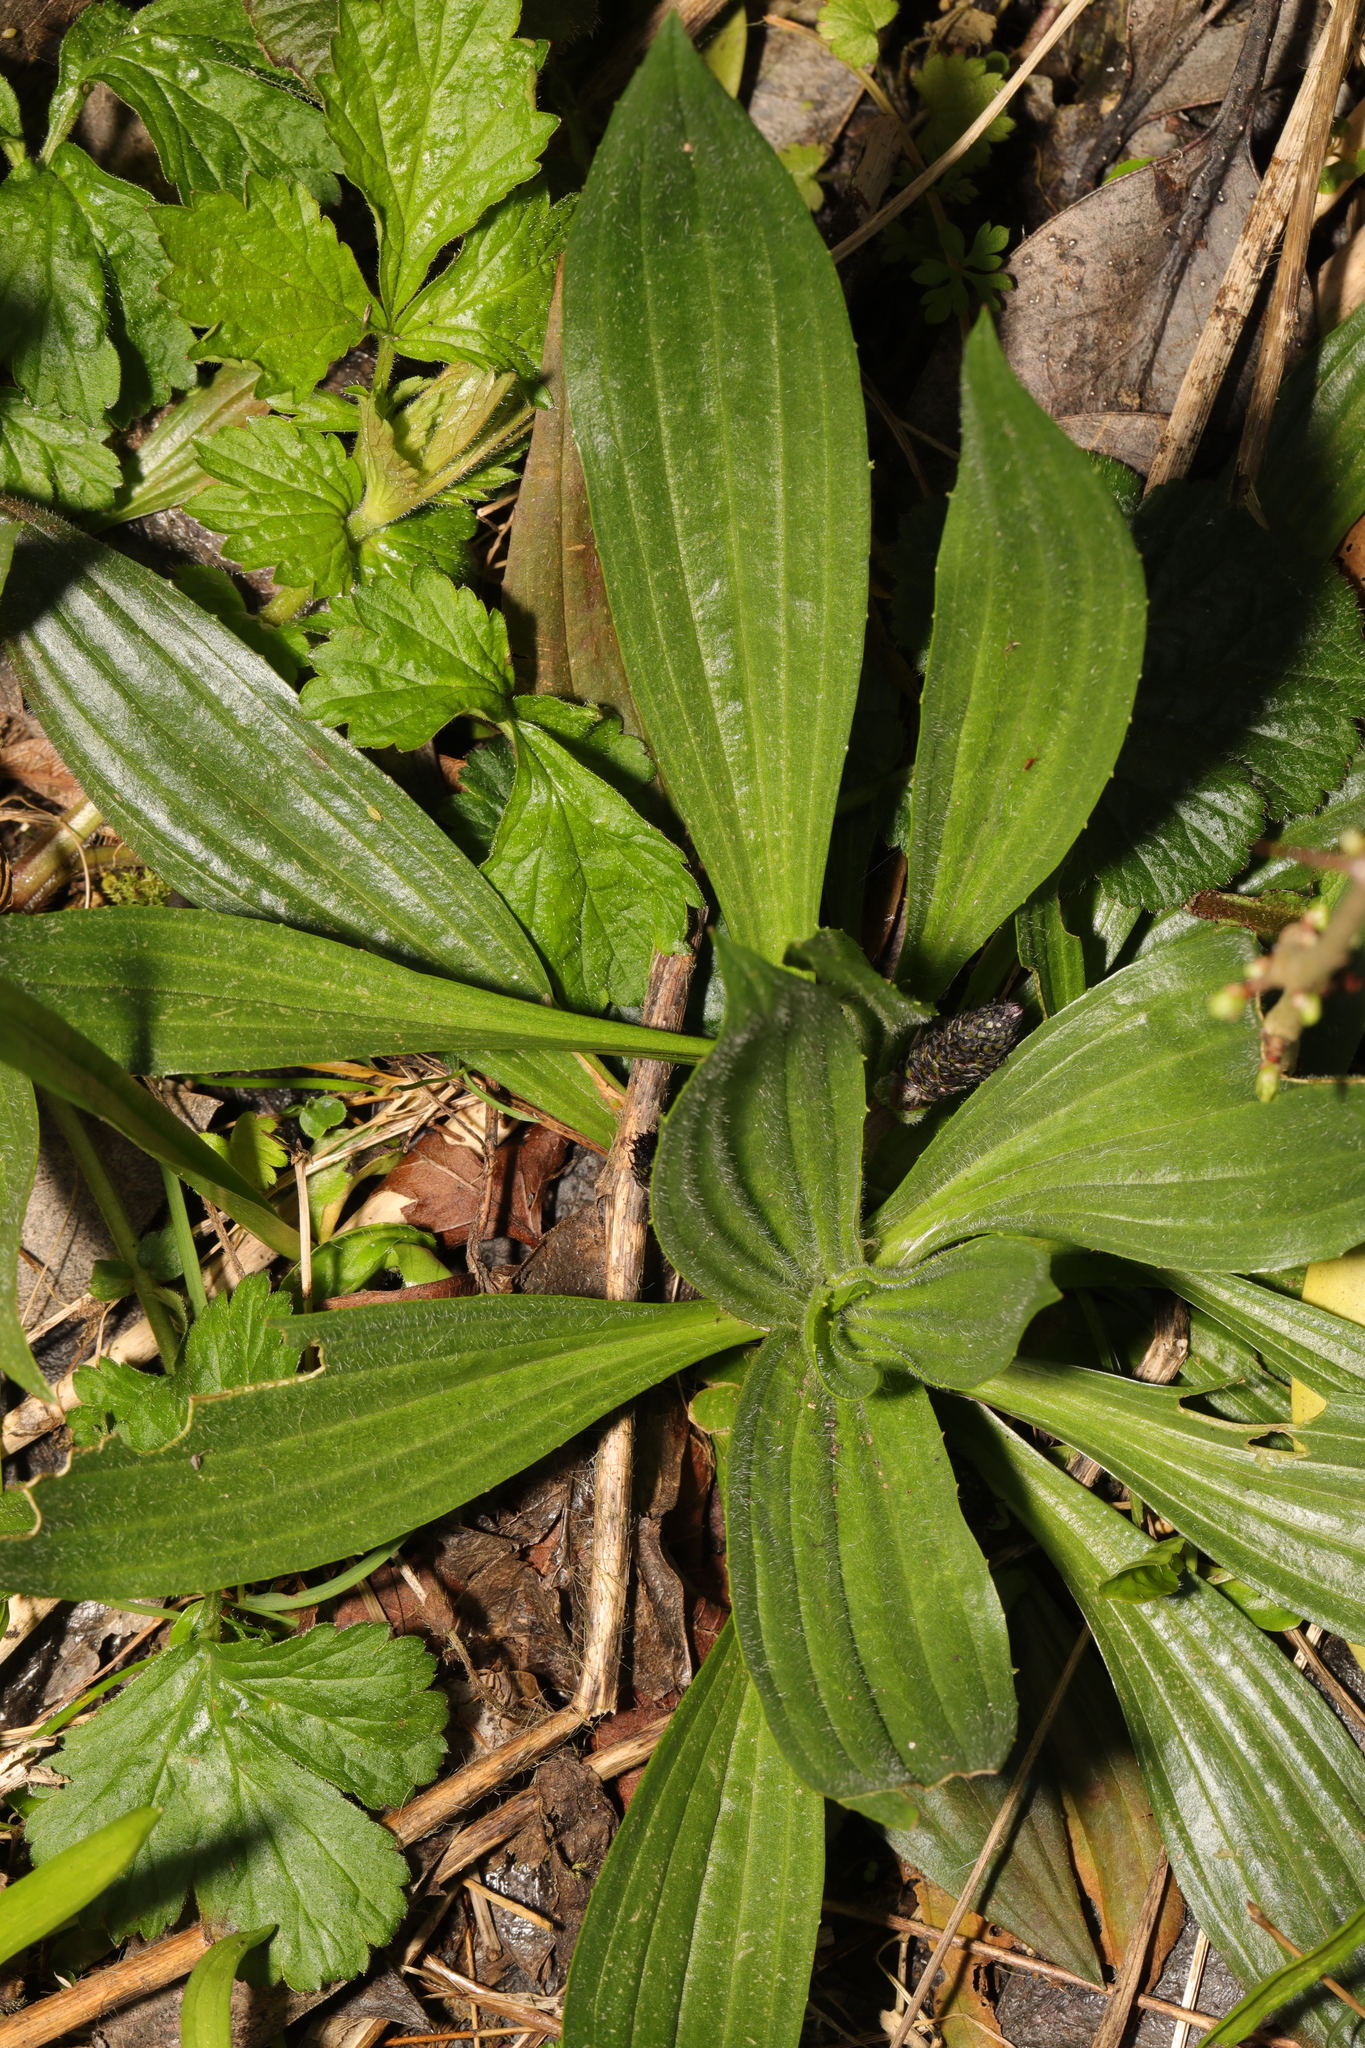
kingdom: Plantae
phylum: Tracheophyta
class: Magnoliopsida
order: Lamiales
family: Plantaginaceae
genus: Plantago
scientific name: Plantago lanceolata
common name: Ribwort plantain
